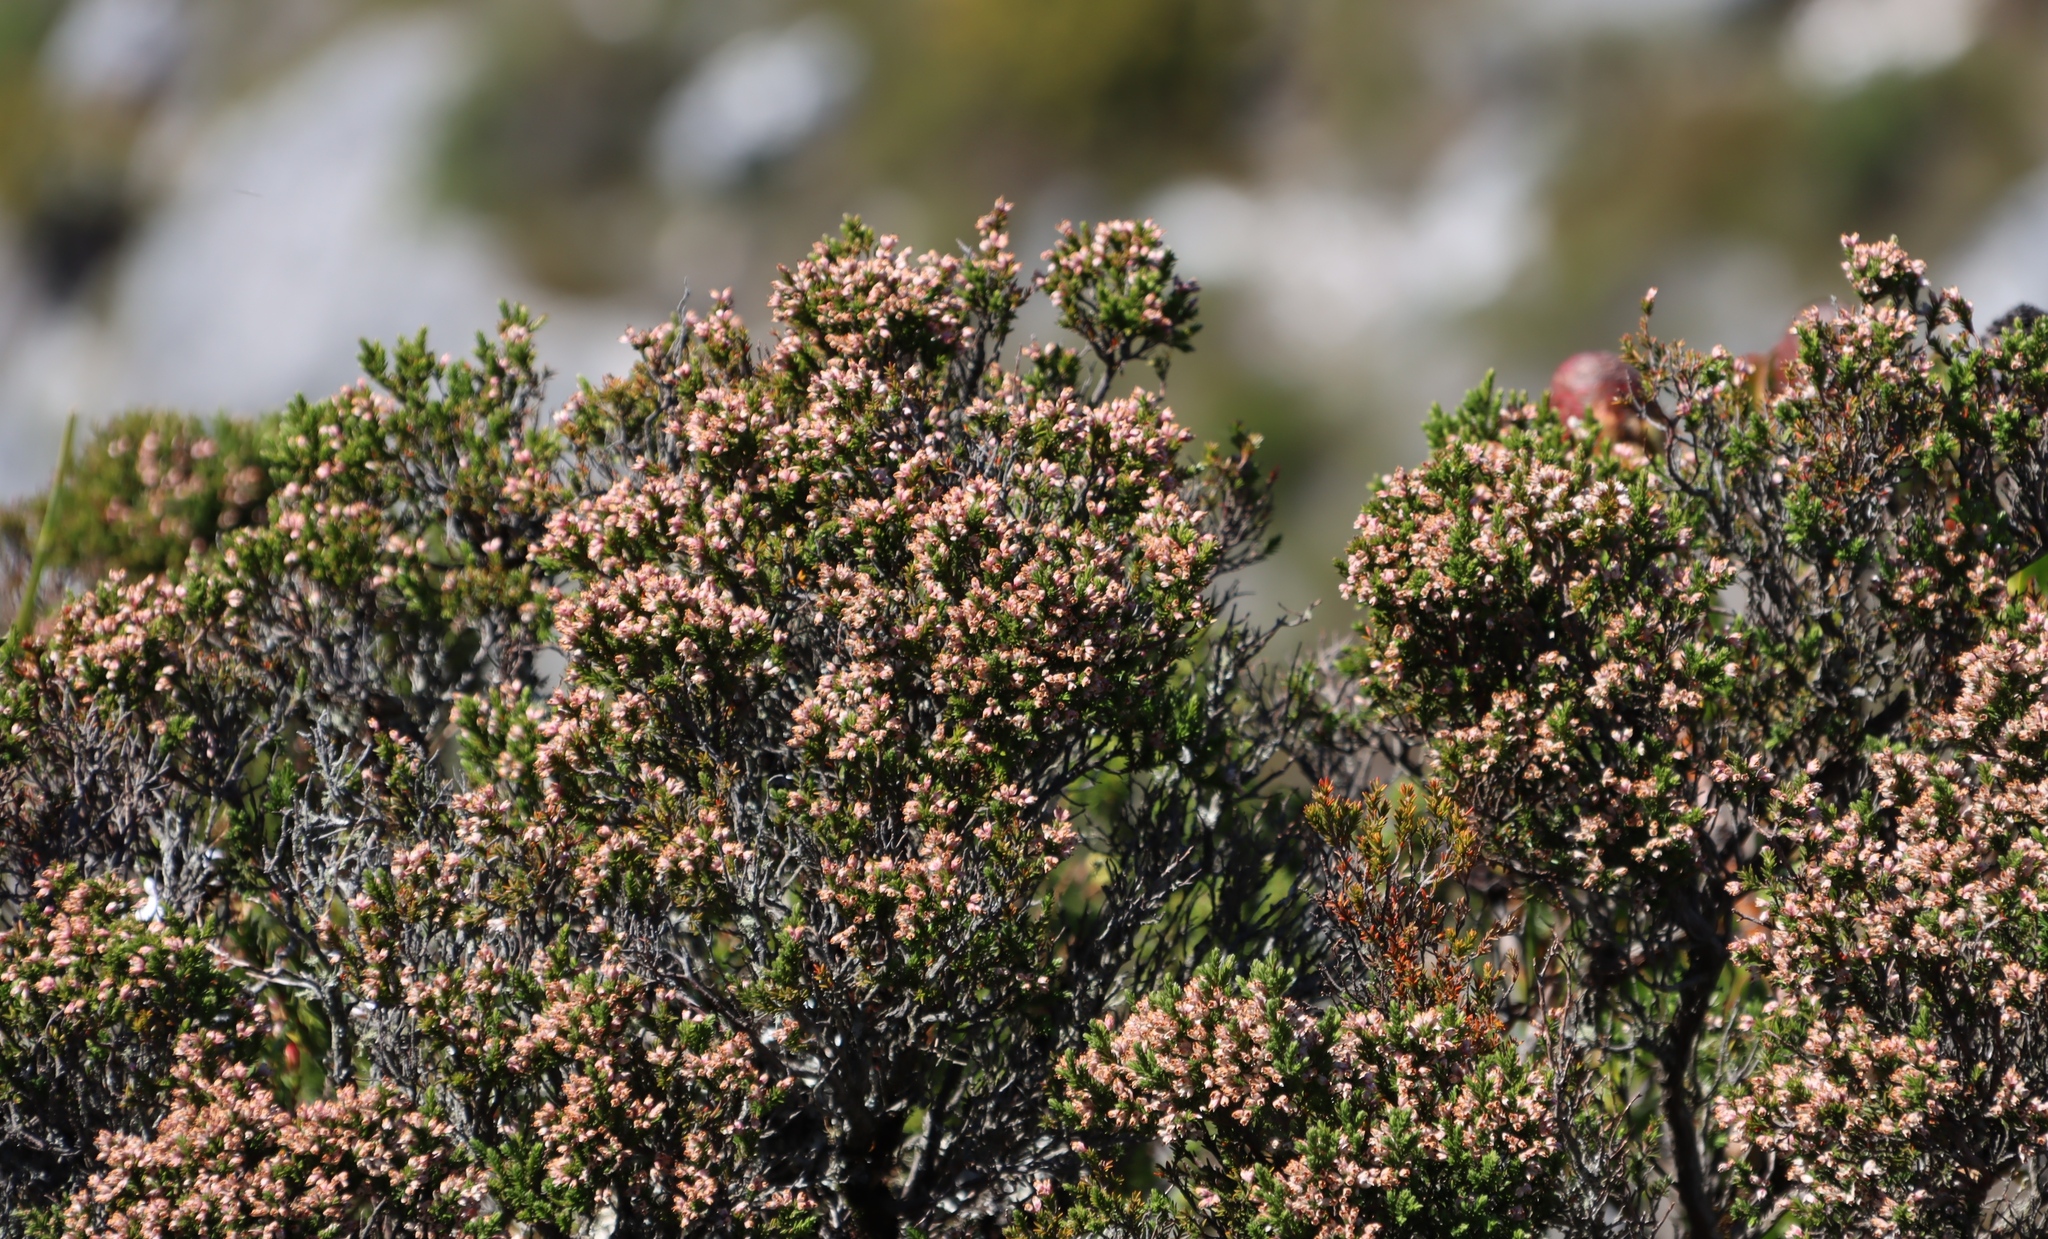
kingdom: Plantae
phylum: Tracheophyta
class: Magnoliopsida
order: Ericales
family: Ericaceae
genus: Erica
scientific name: Erica diosmifolia
